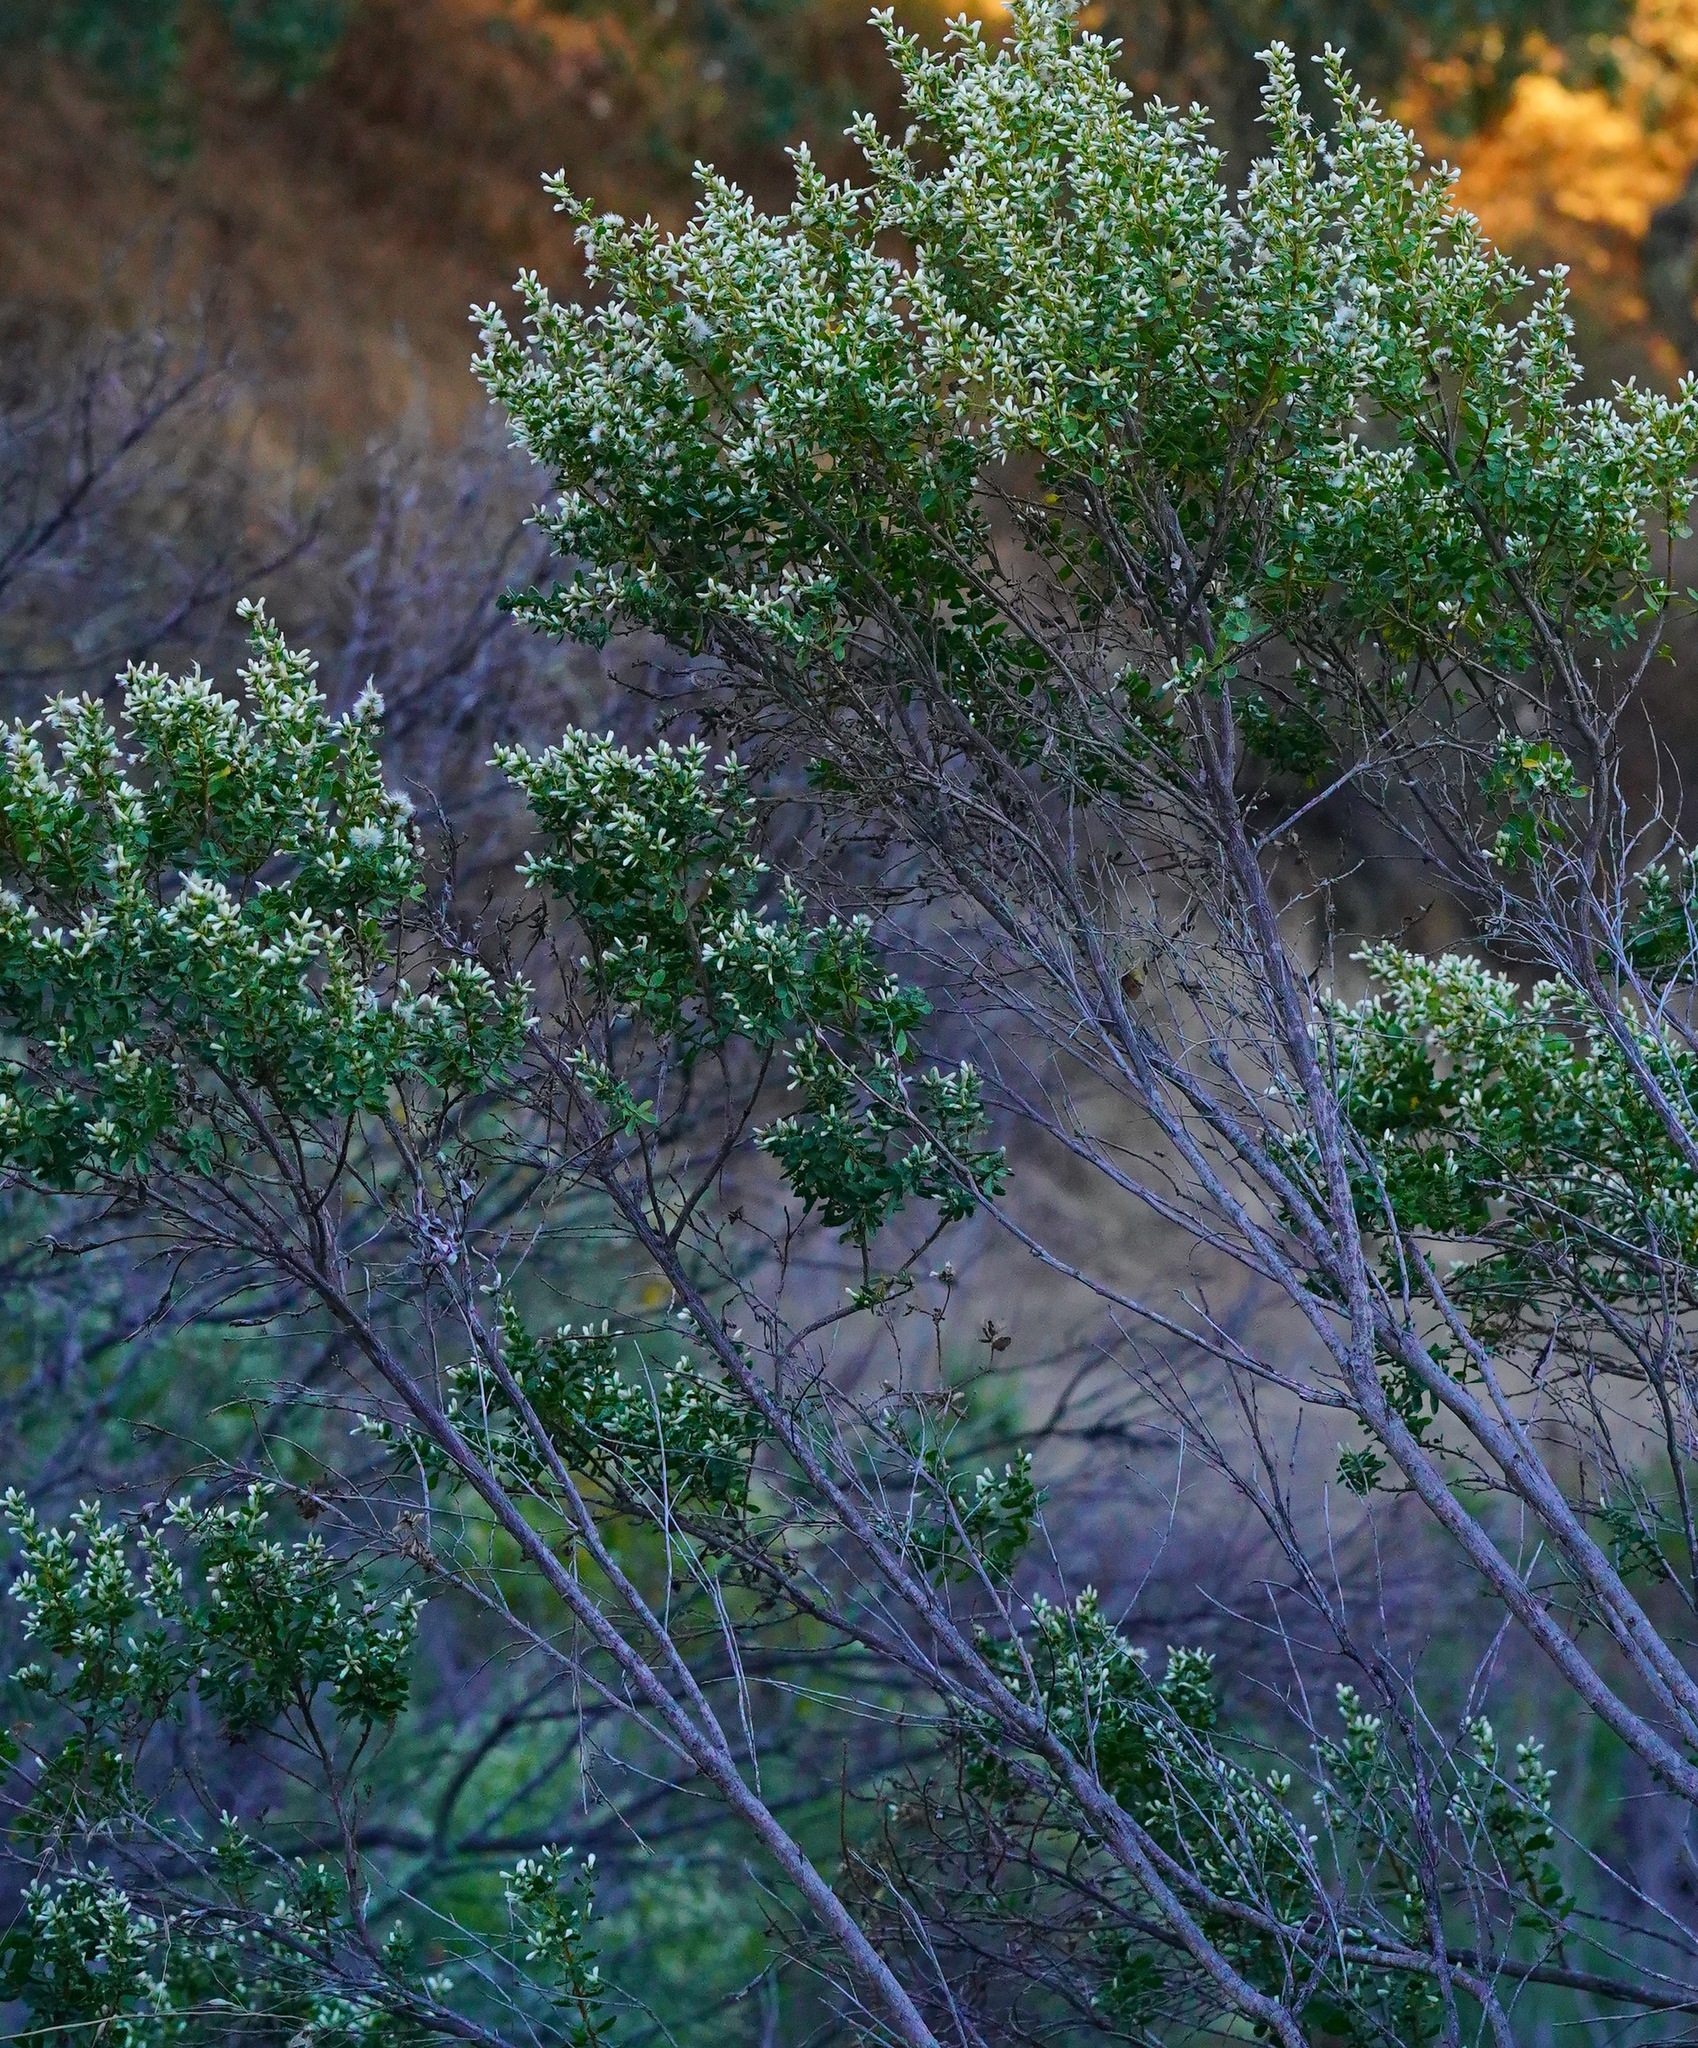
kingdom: Plantae
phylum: Tracheophyta
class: Magnoliopsida
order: Asterales
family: Asteraceae
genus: Baccharis
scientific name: Baccharis pilularis
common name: Coyotebrush
